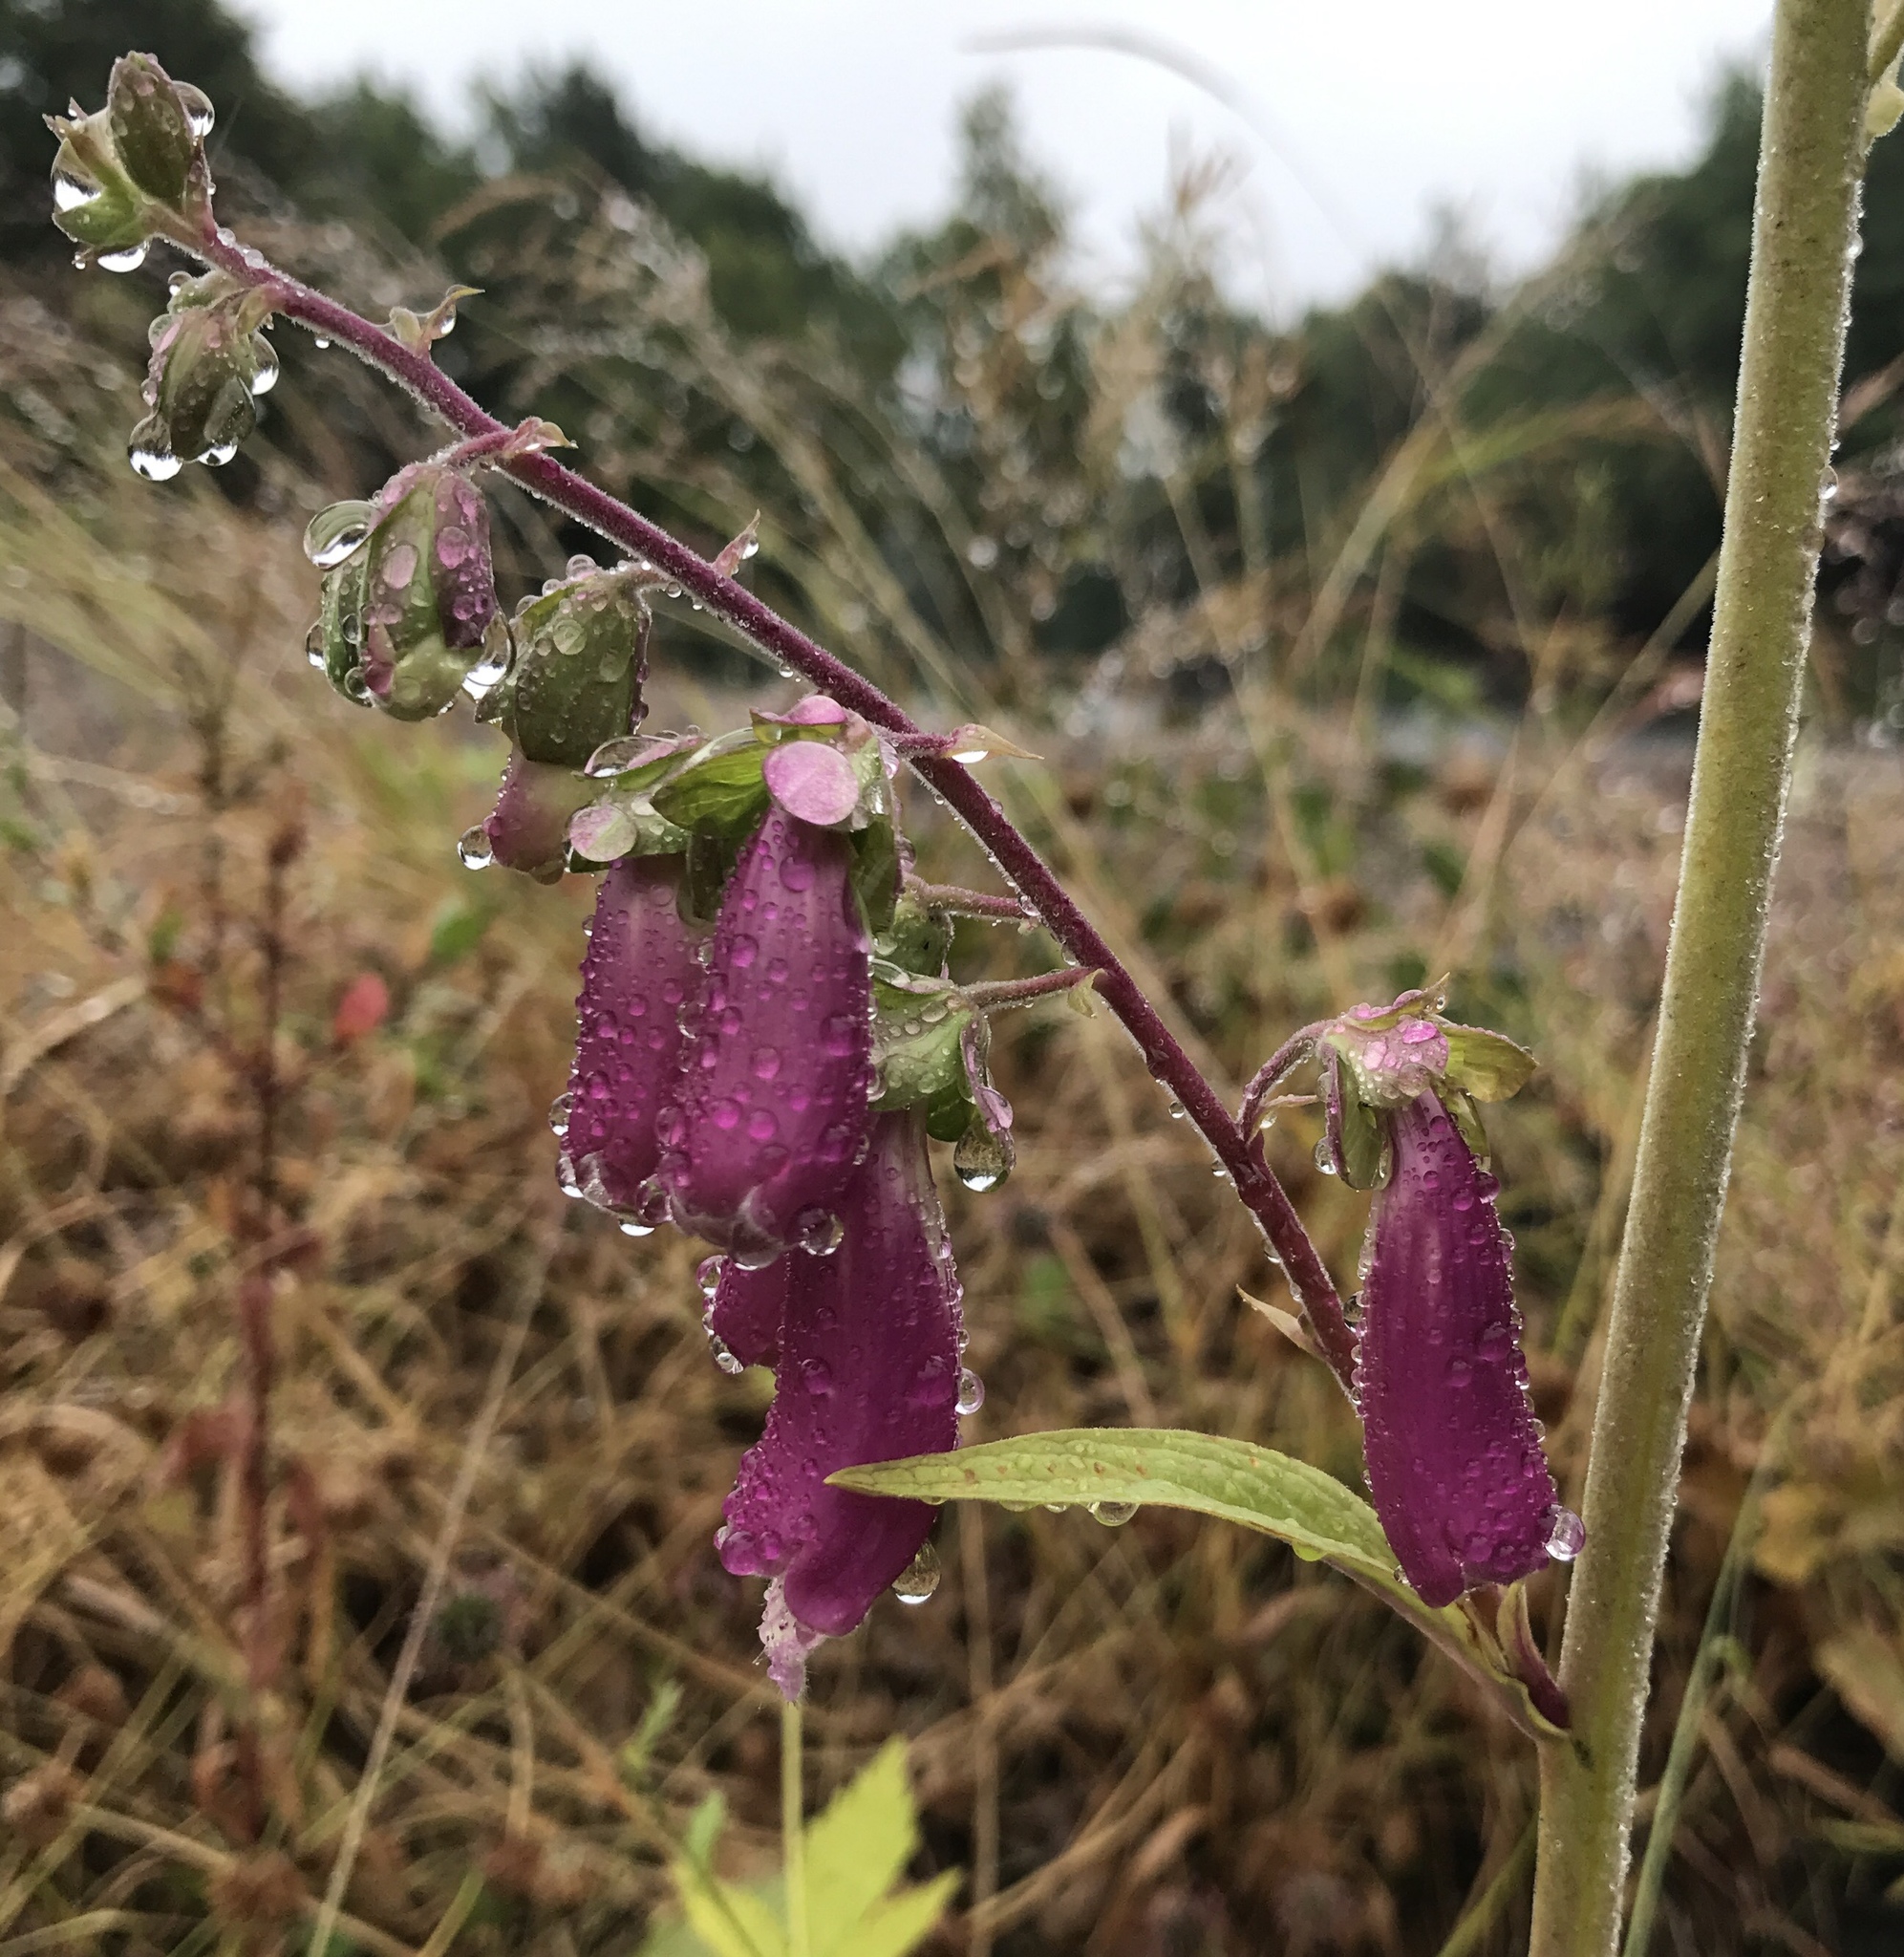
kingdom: Plantae
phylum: Tracheophyta
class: Magnoliopsida
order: Lamiales
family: Plantaginaceae
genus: Digitalis
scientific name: Digitalis purpurea
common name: Foxglove
